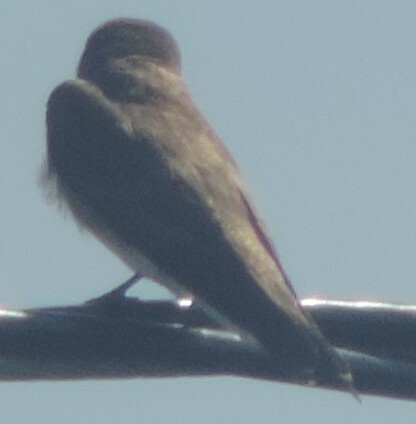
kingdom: Animalia
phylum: Chordata
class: Aves
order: Passeriformes
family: Hirundinidae
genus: Stelgidopteryx
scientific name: Stelgidopteryx serripennis
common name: Northern rough-winged swallow
